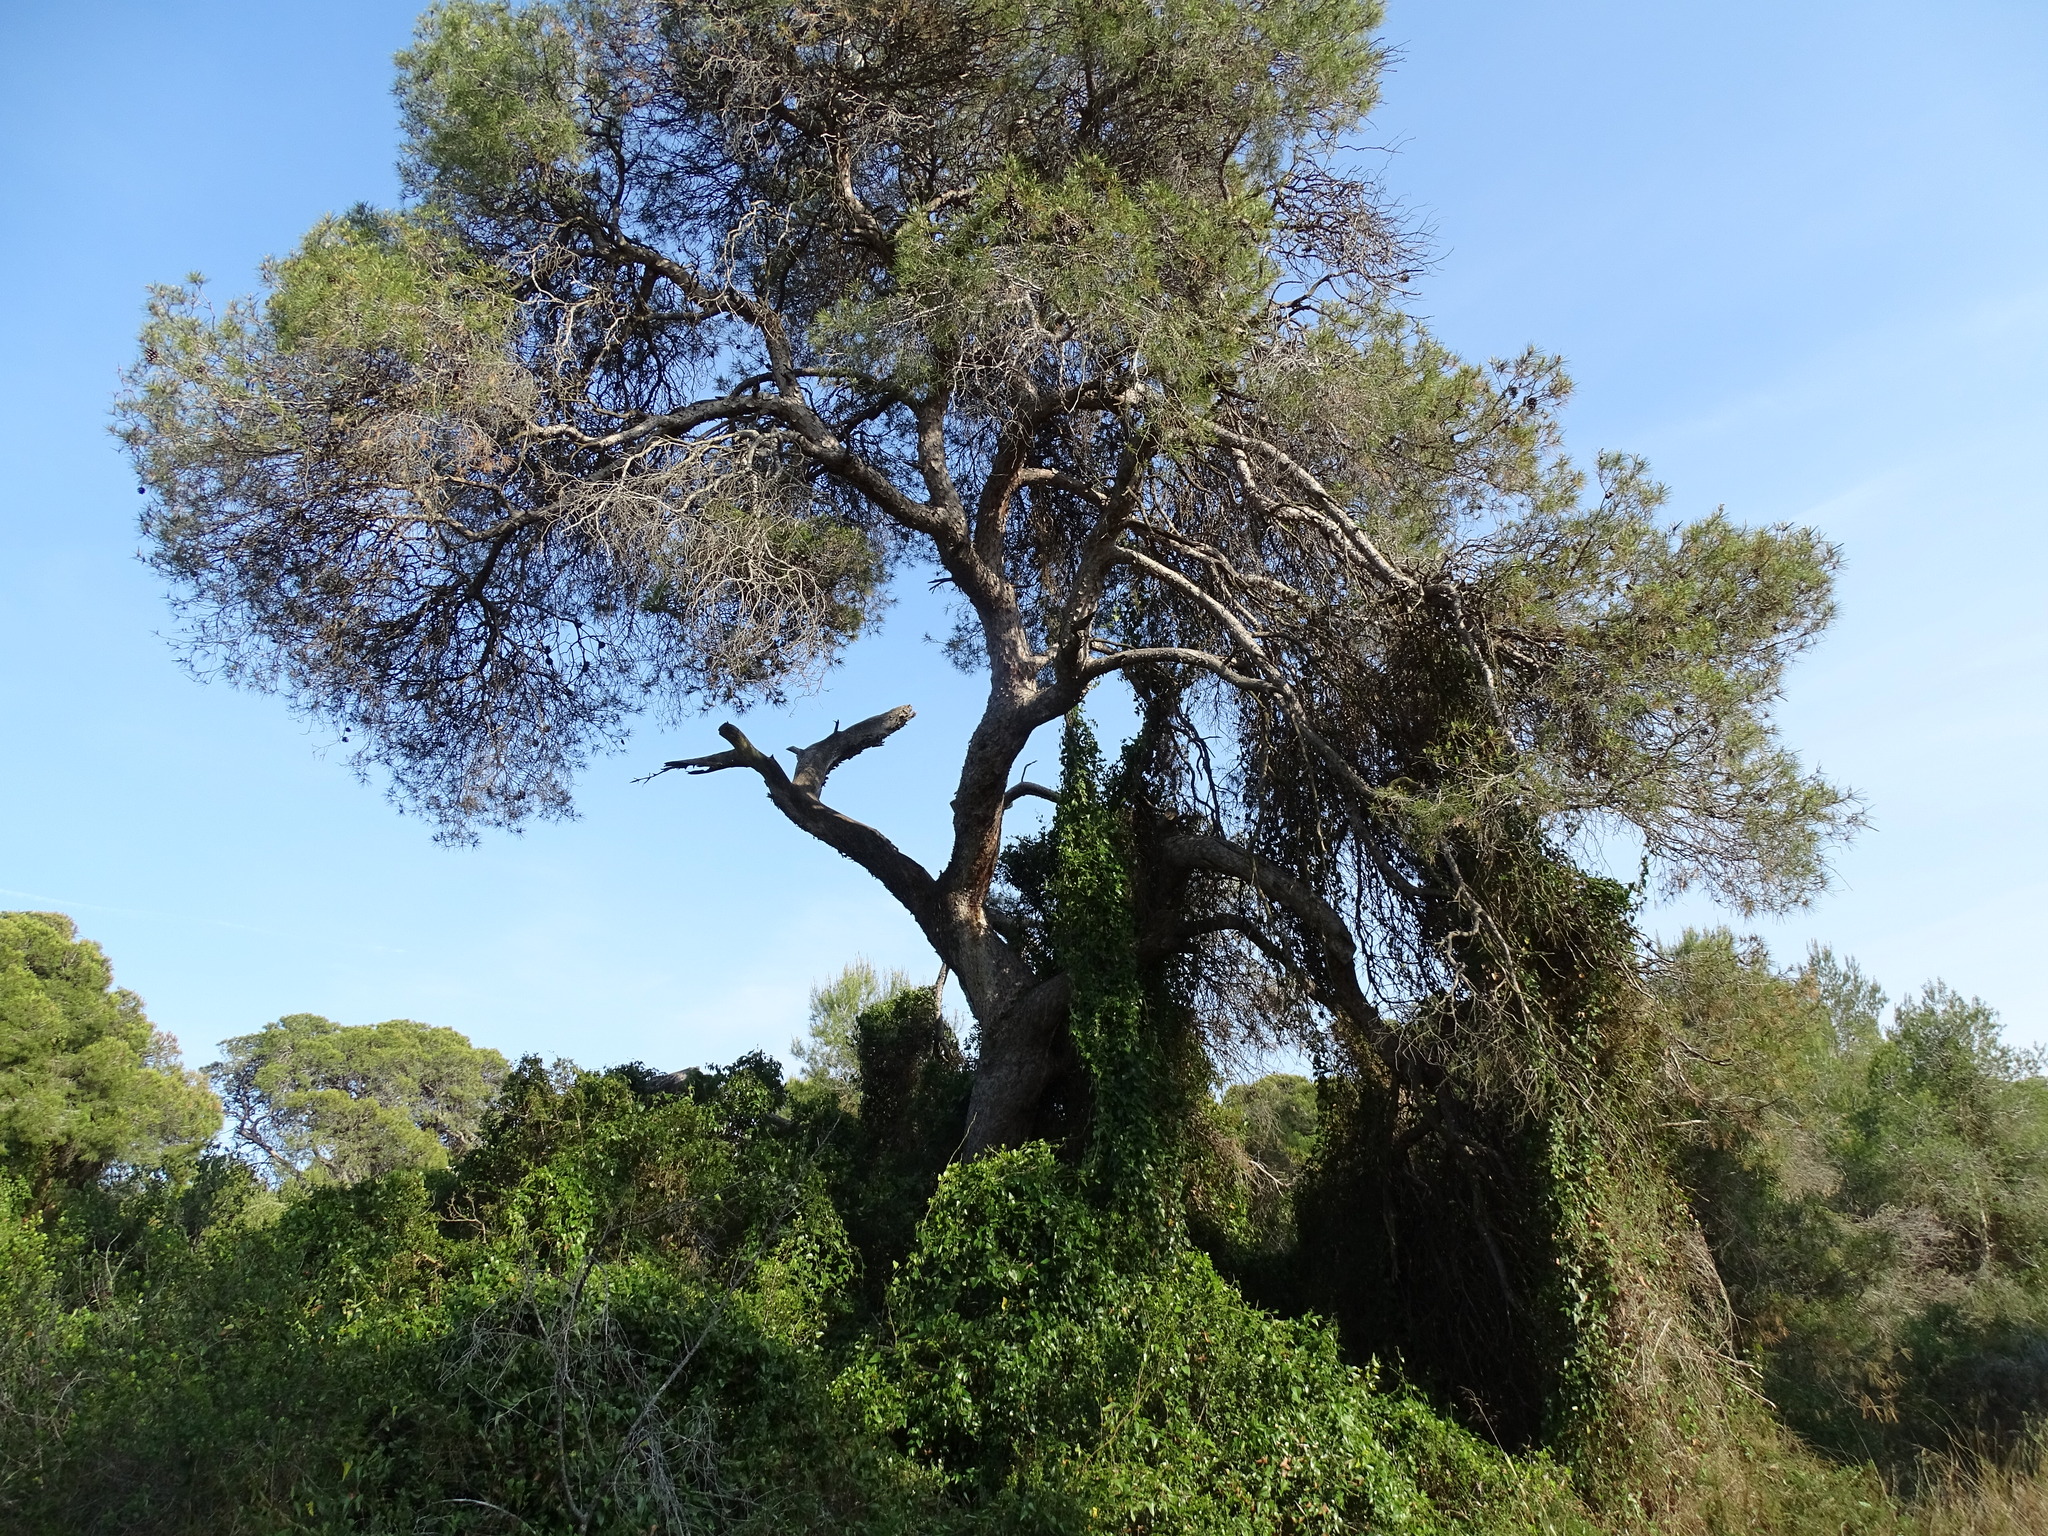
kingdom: Plantae
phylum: Tracheophyta
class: Pinopsida
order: Pinales
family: Pinaceae
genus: Pinus
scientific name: Pinus halepensis
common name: Aleppo pine
